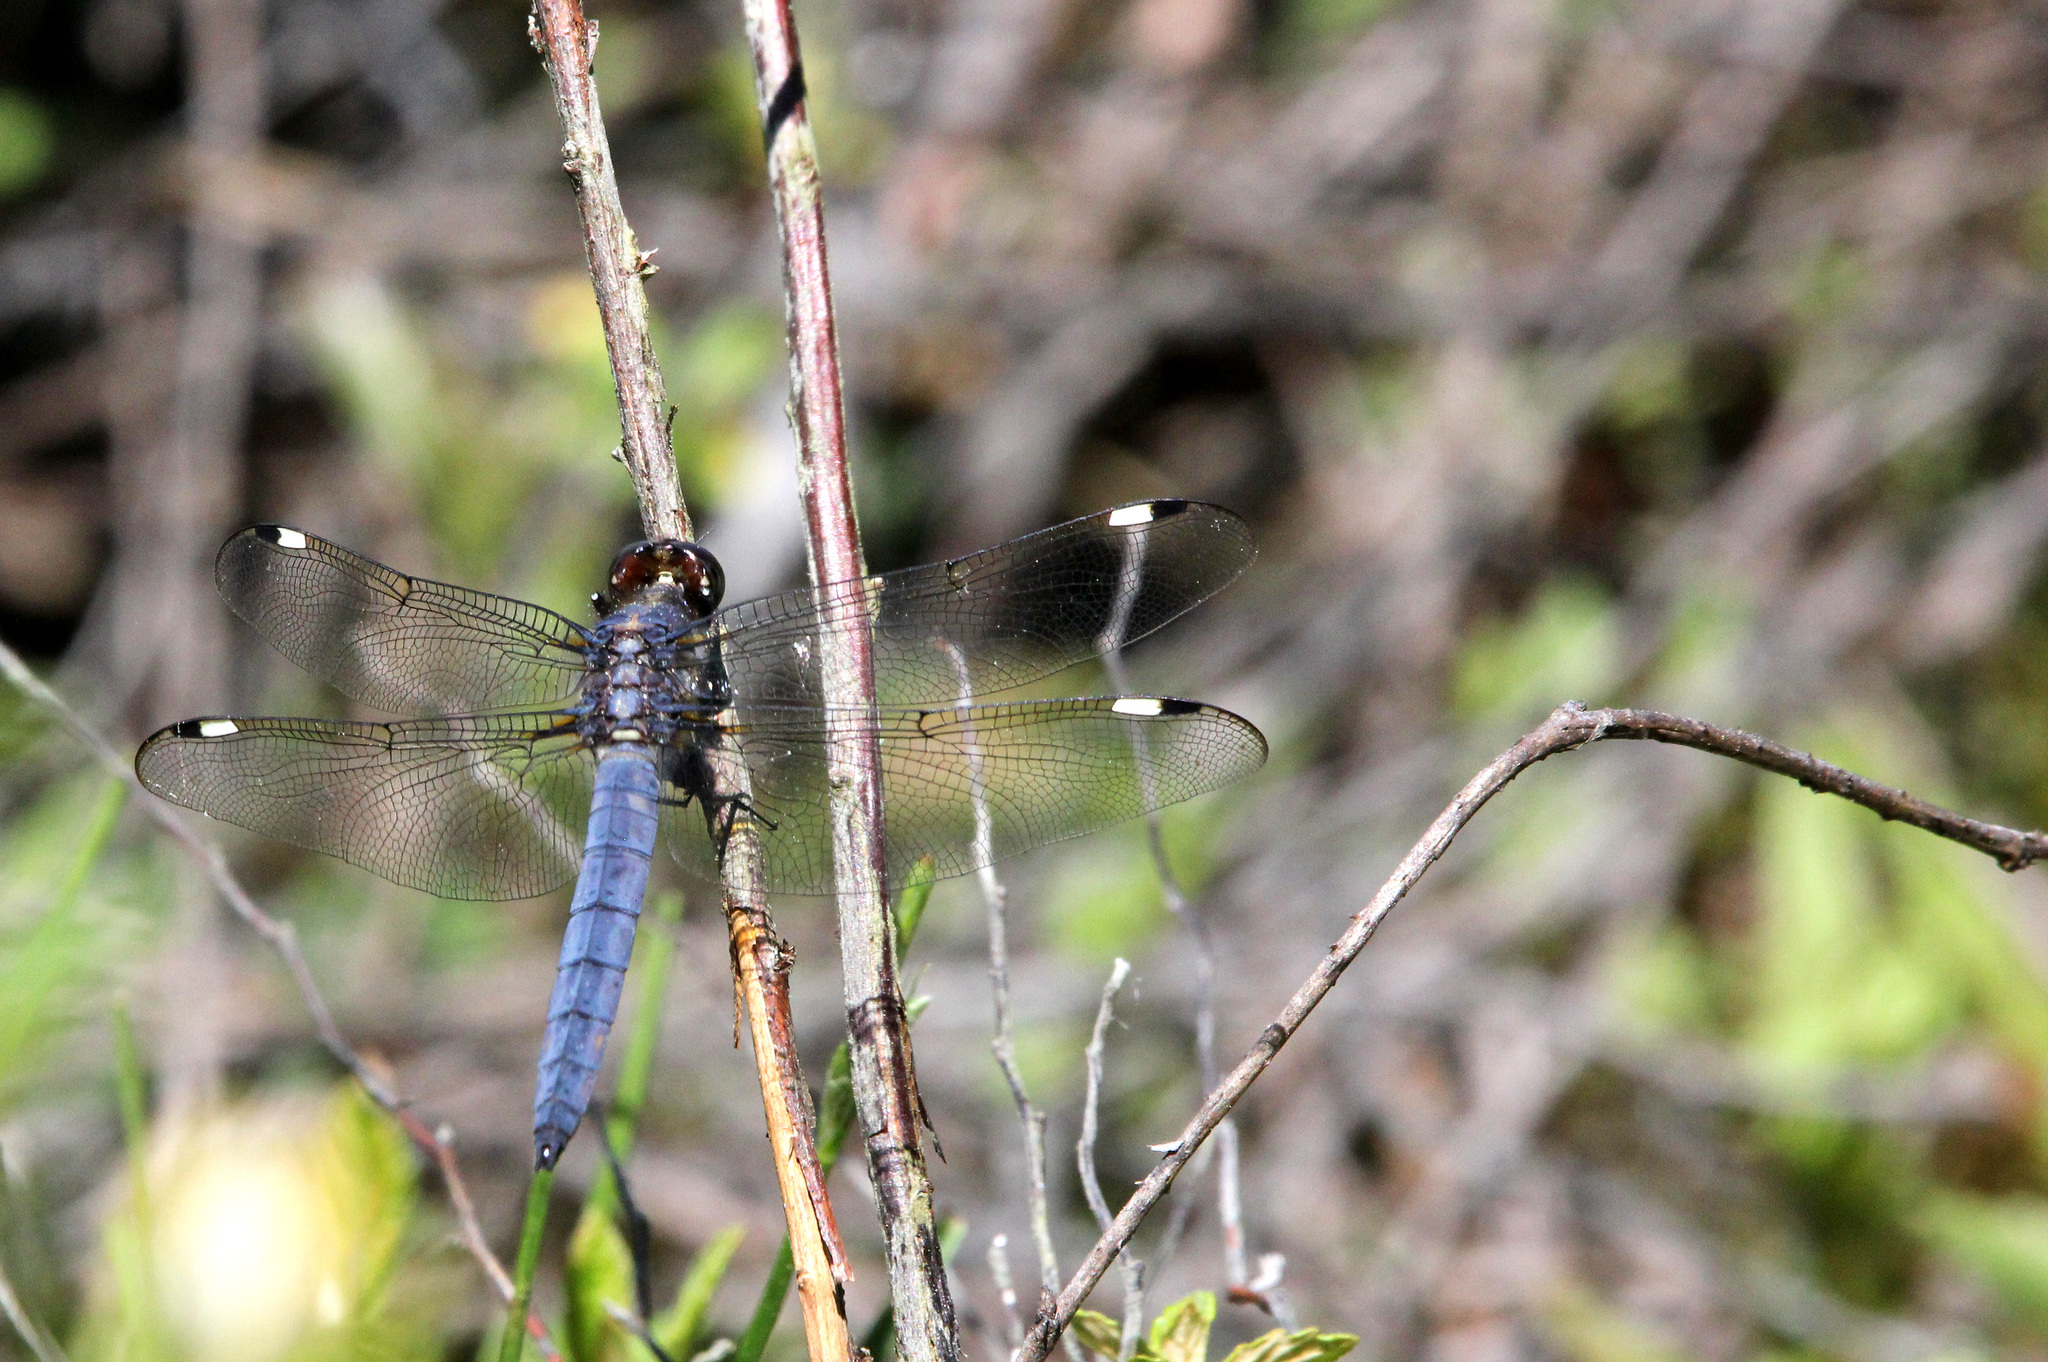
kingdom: Animalia
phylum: Arthropoda
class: Insecta
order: Odonata
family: Libellulidae
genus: Libellula
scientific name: Libellula cyanea
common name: Spangled skimmer
